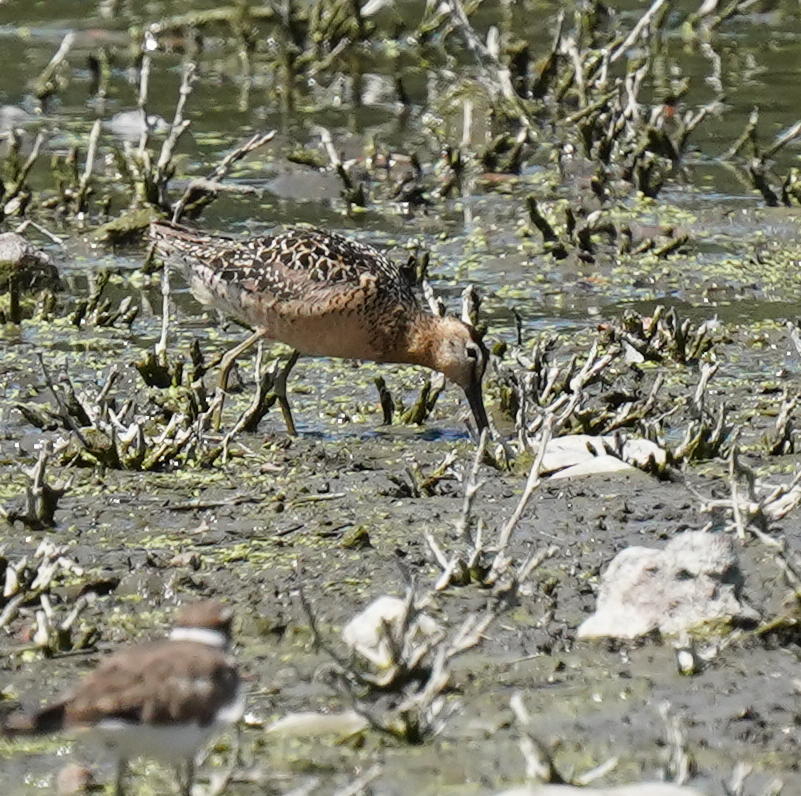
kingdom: Animalia
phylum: Chordata
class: Aves
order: Charadriiformes
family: Scolopacidae
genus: Limnodromus
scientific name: Limnodromus scolopaceus
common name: Long-billed dowitcher
